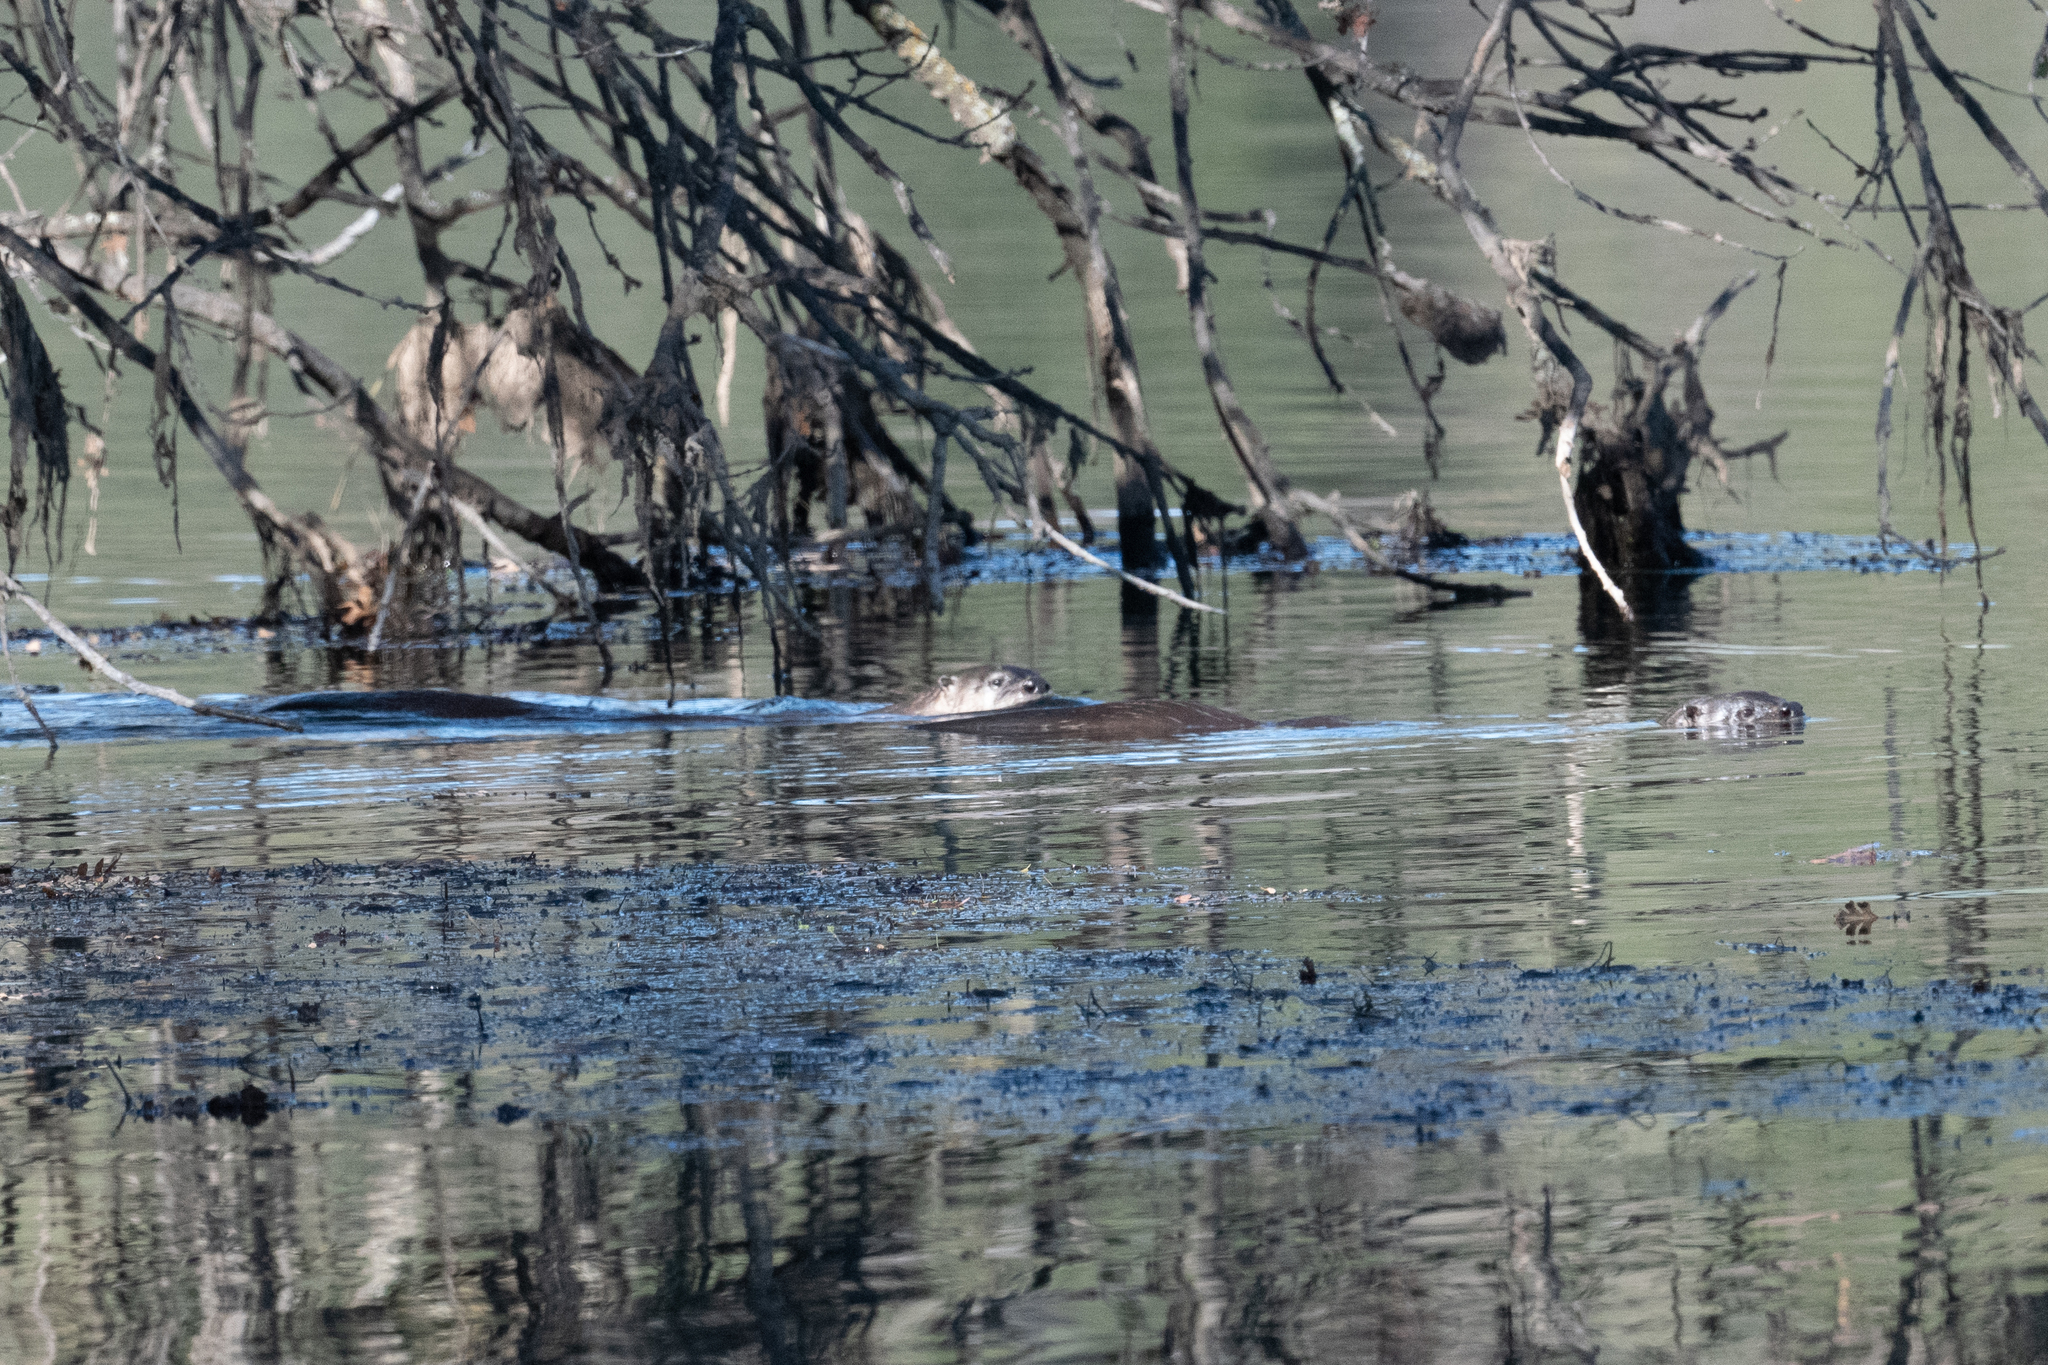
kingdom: Animalia
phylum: Chordata
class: Mammalia
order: Carnivora
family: Mustelidae
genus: Lontra
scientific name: Lontra canadensis
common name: North american river otter
